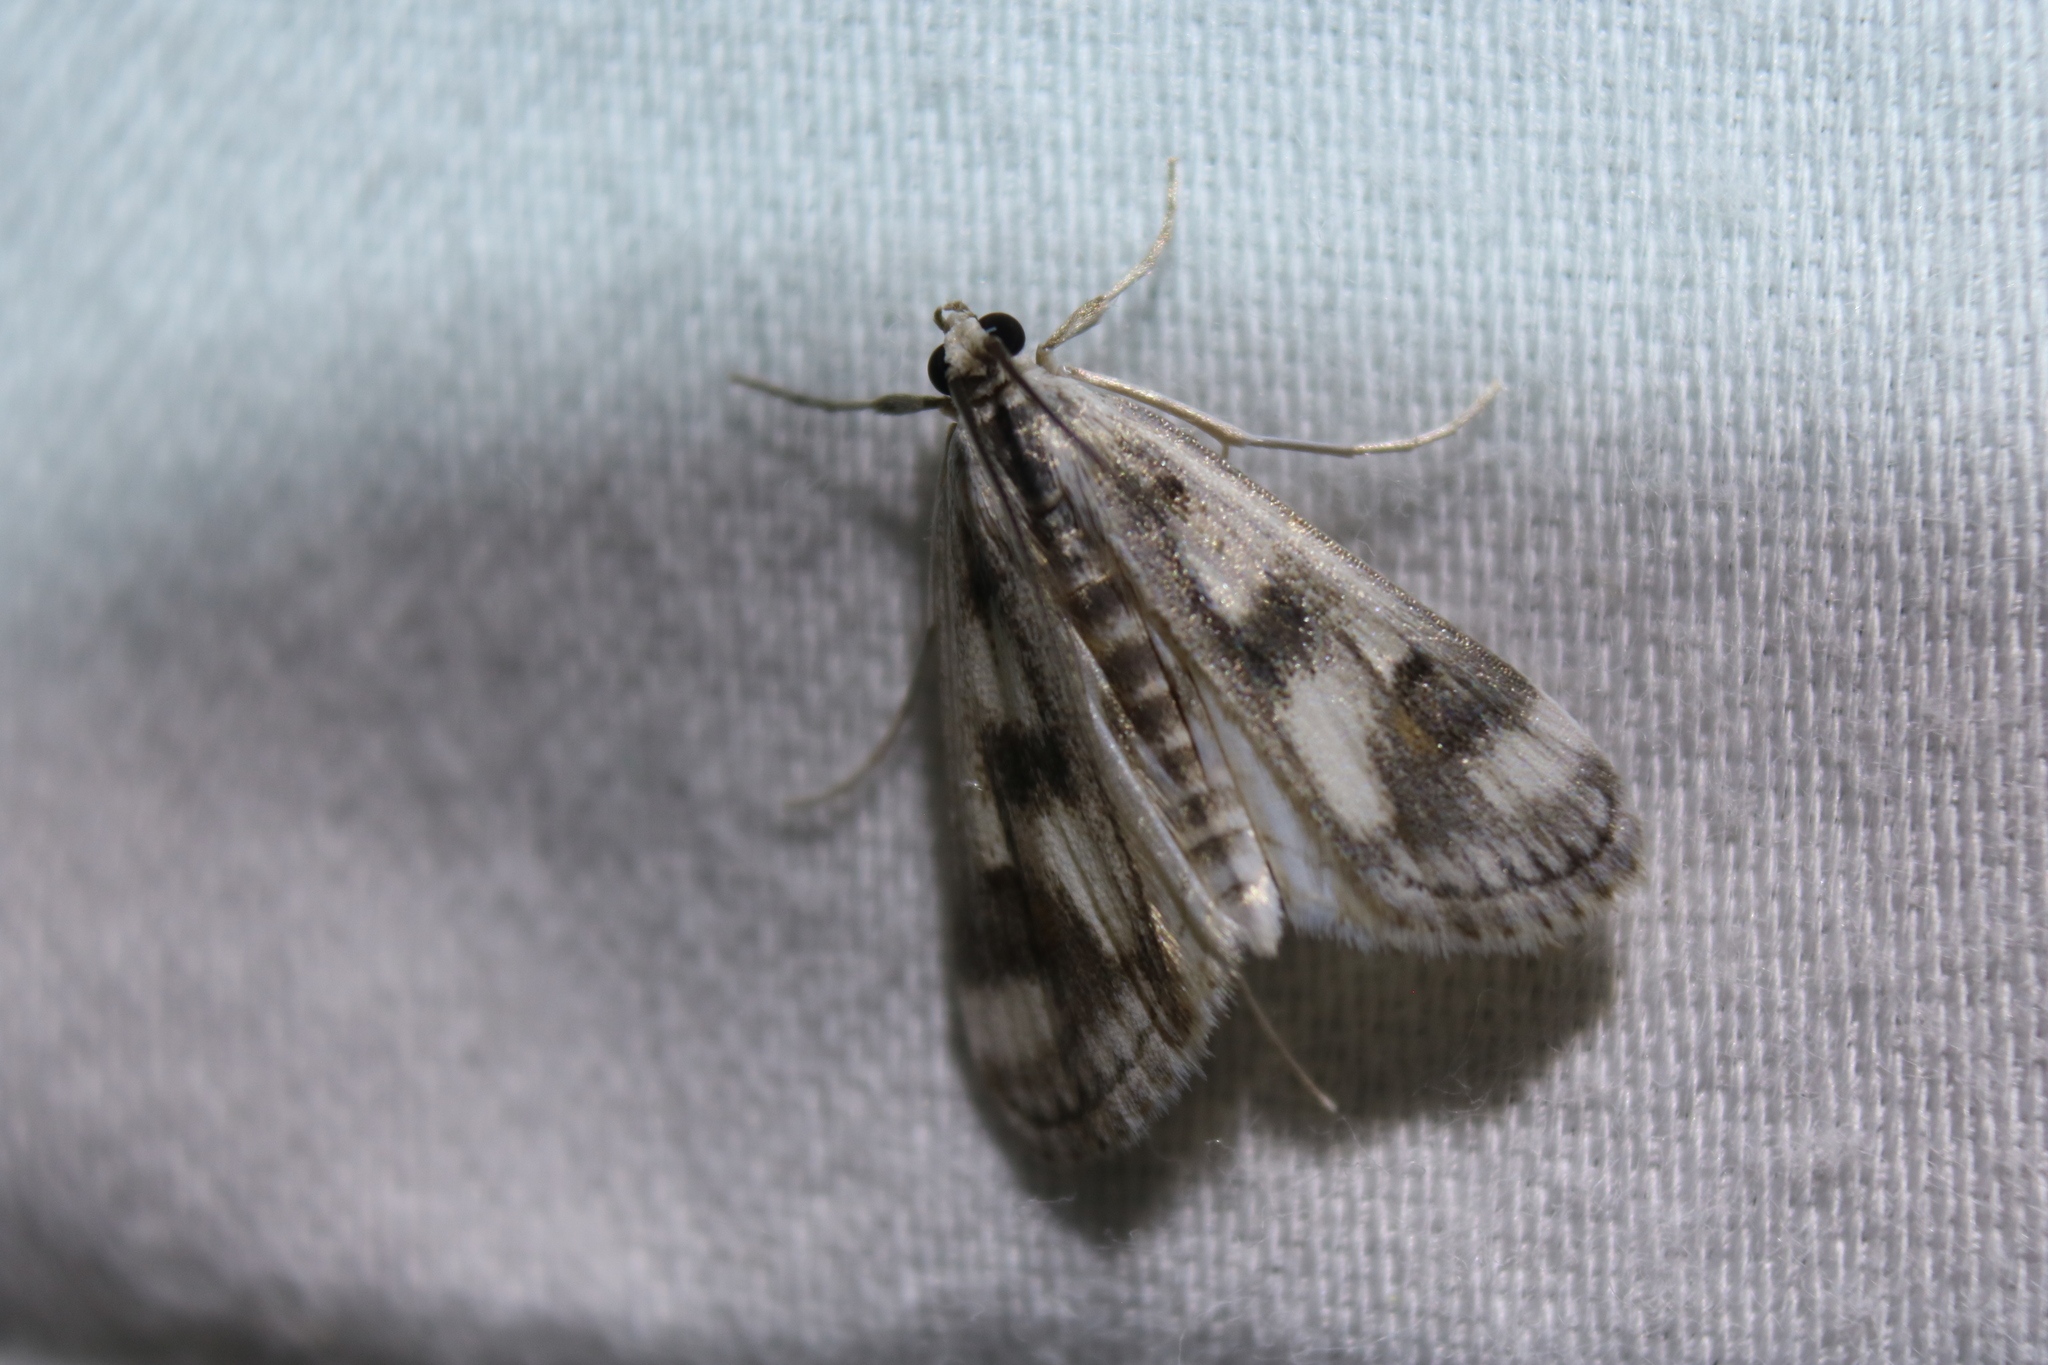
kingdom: Animalia
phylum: Arthropoda
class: Insecta
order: Lepidoptera
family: Crambidae
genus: Parapoynx
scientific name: Parapoynx maculalis
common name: Polymorphic pondweed moth
